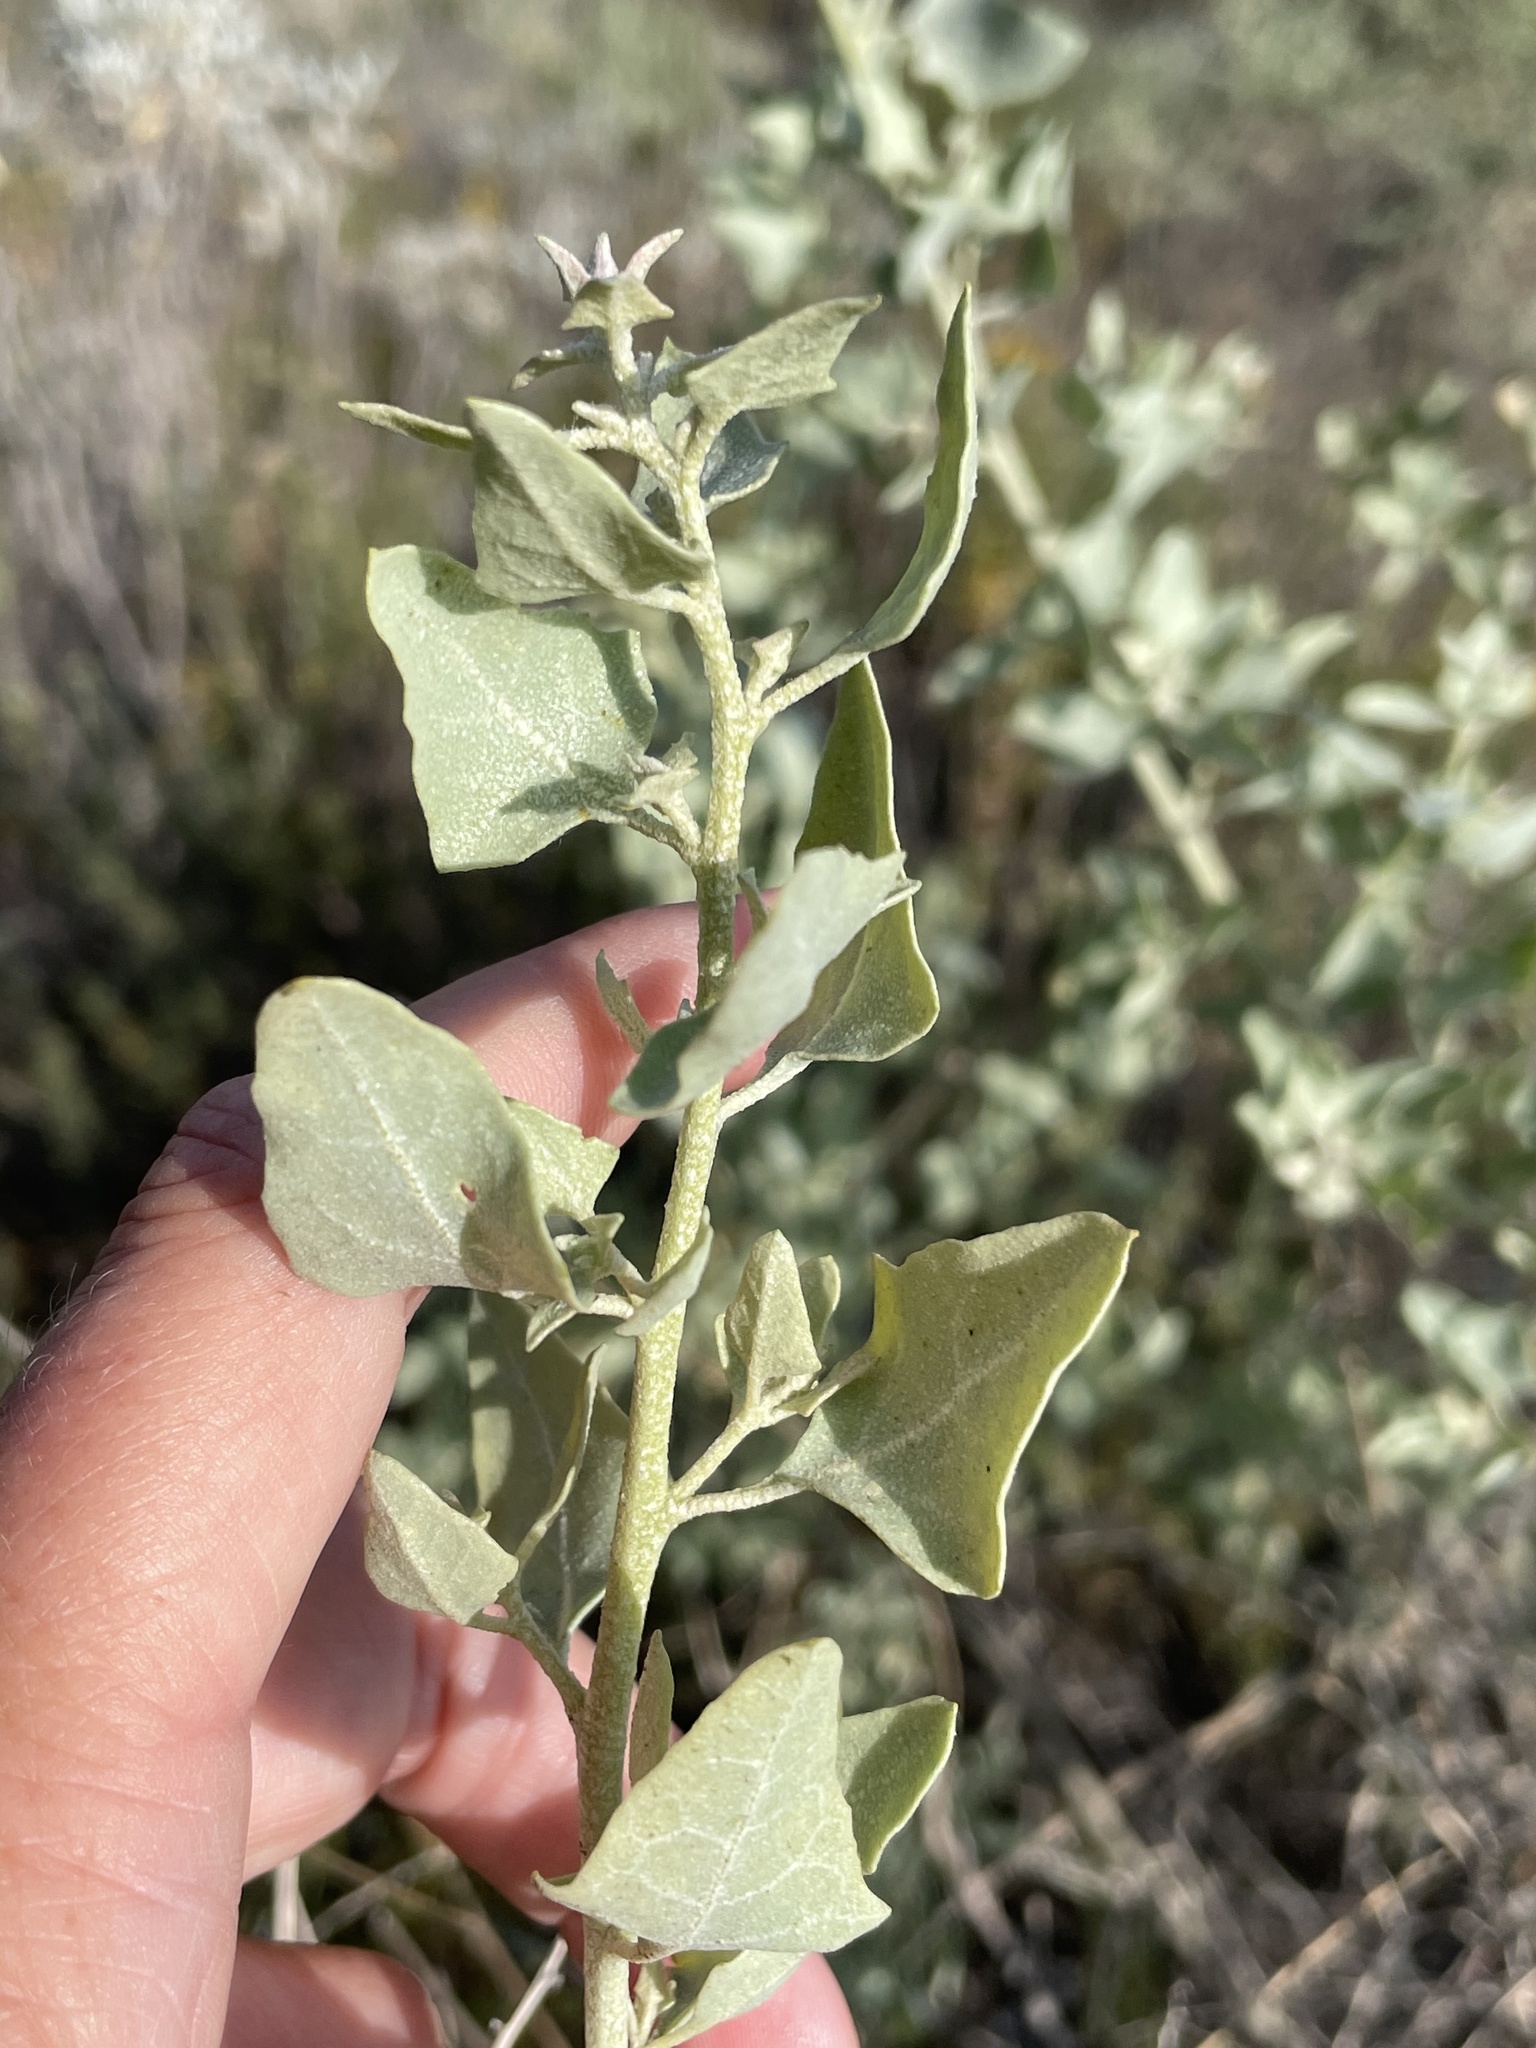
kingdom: Plantae
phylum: Tracheophyta
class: Magnoliopsida
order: Caryophyllales
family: Amaranthaceae
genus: Atriplex
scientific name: Atriplex lentiformis
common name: Big saltbush
